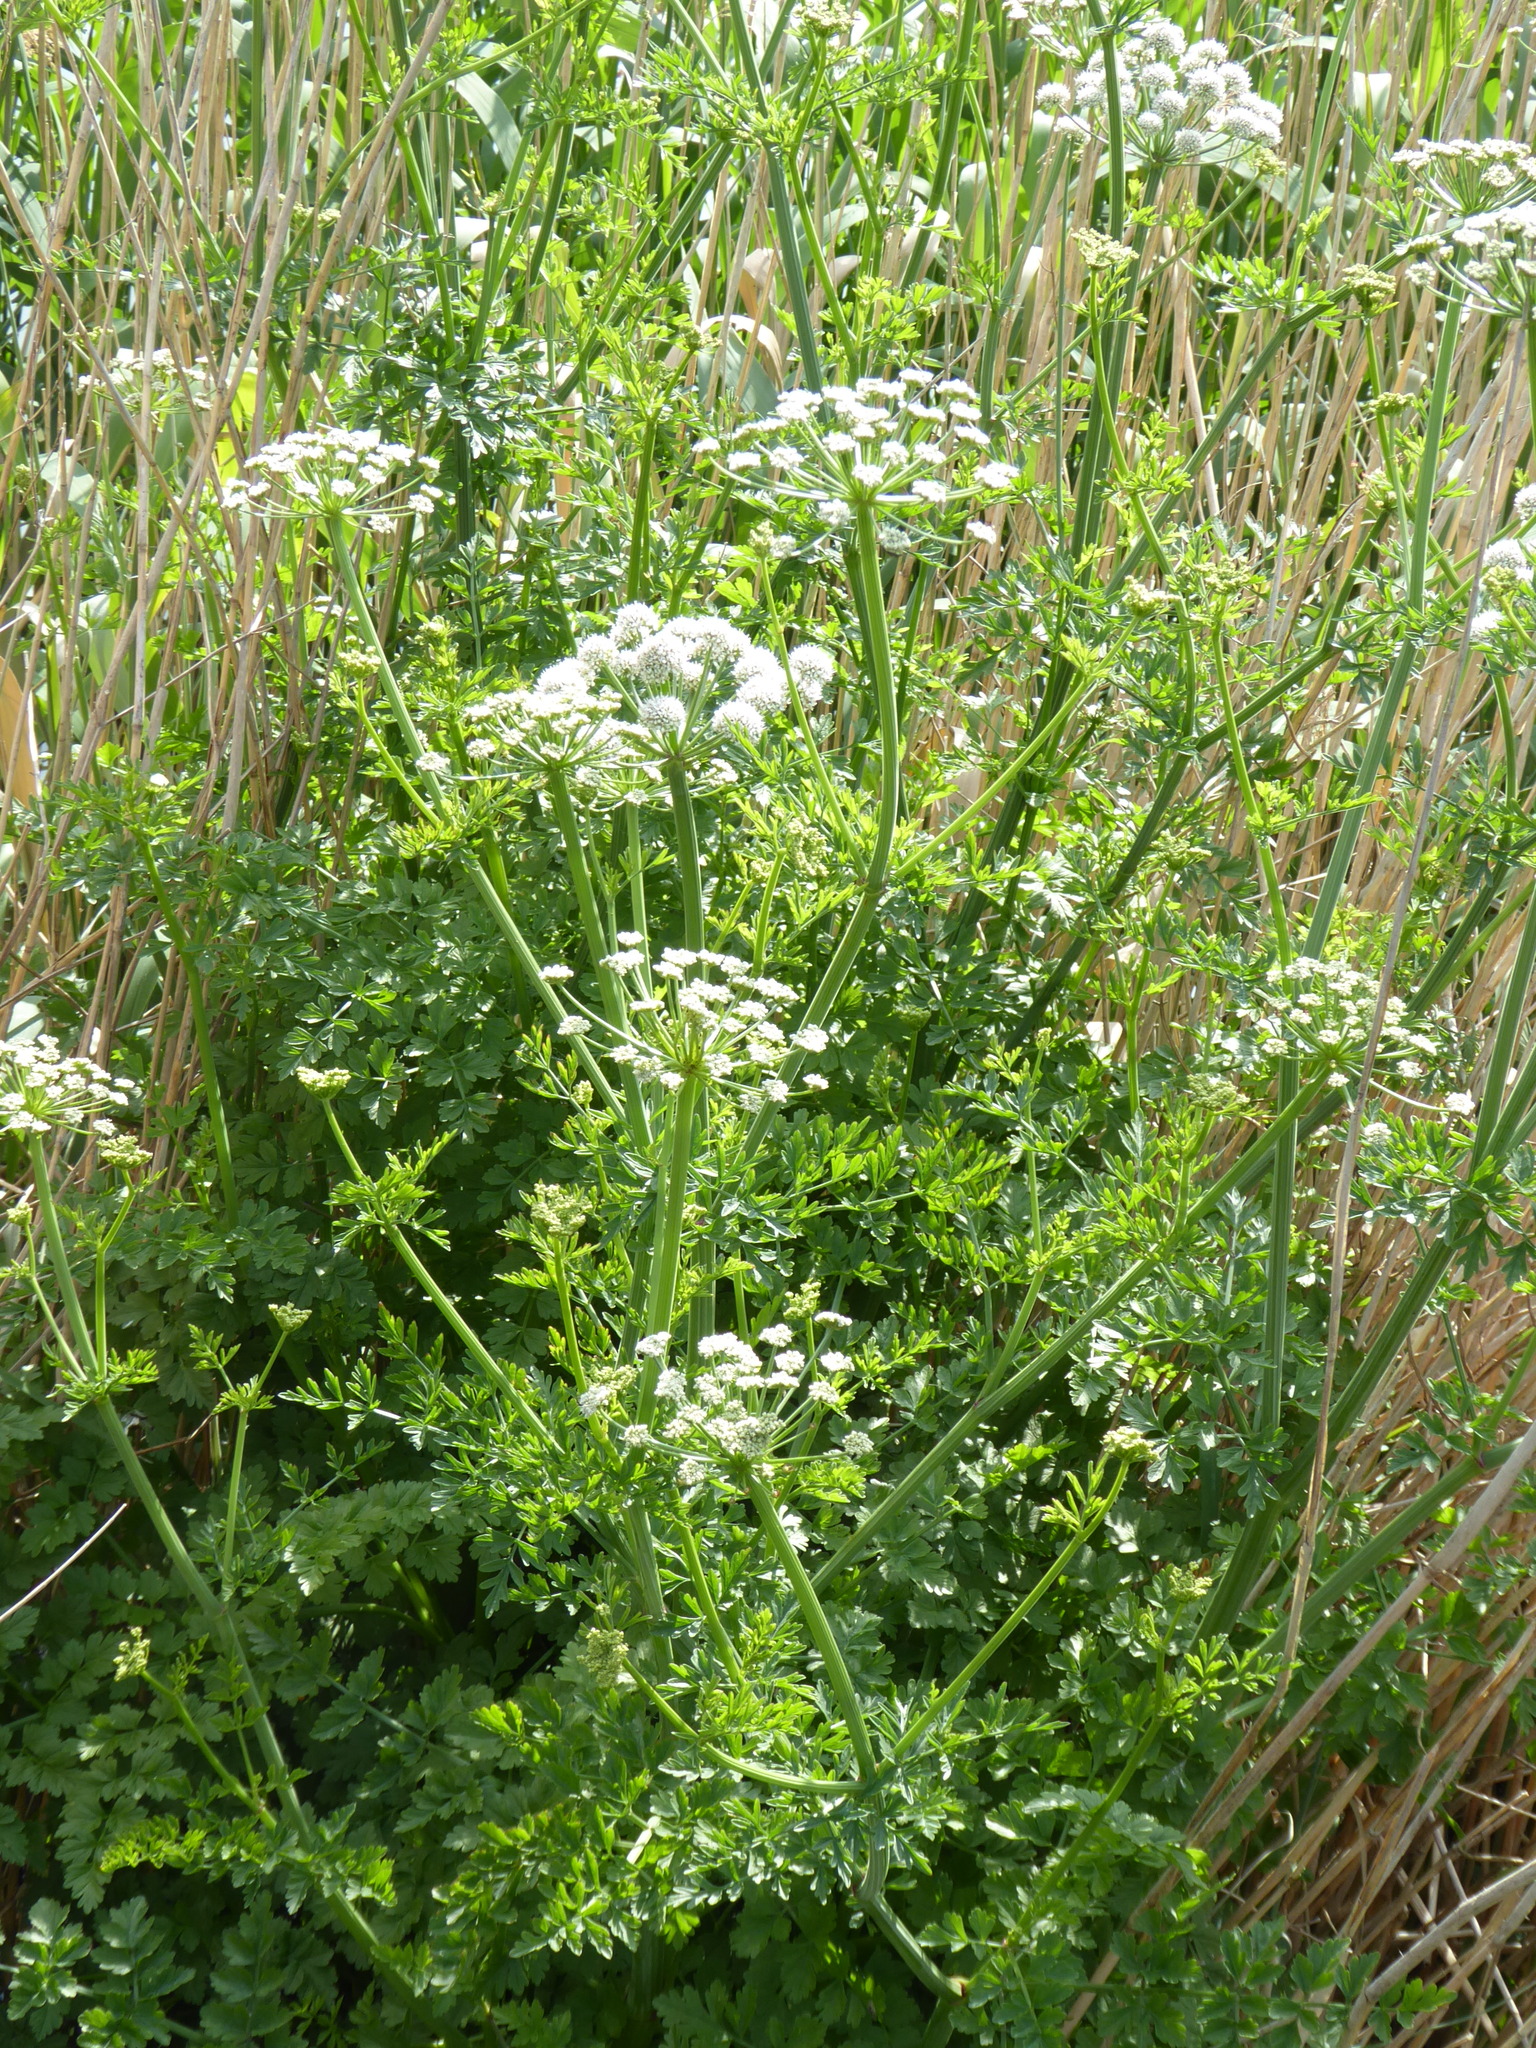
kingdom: Plantae
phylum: Tracheophyta
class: Magnoliopsida
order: Apiales
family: Apiaceae
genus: Oenanthe
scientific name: Oenanthe crocata
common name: Hemlock water-dropwort
